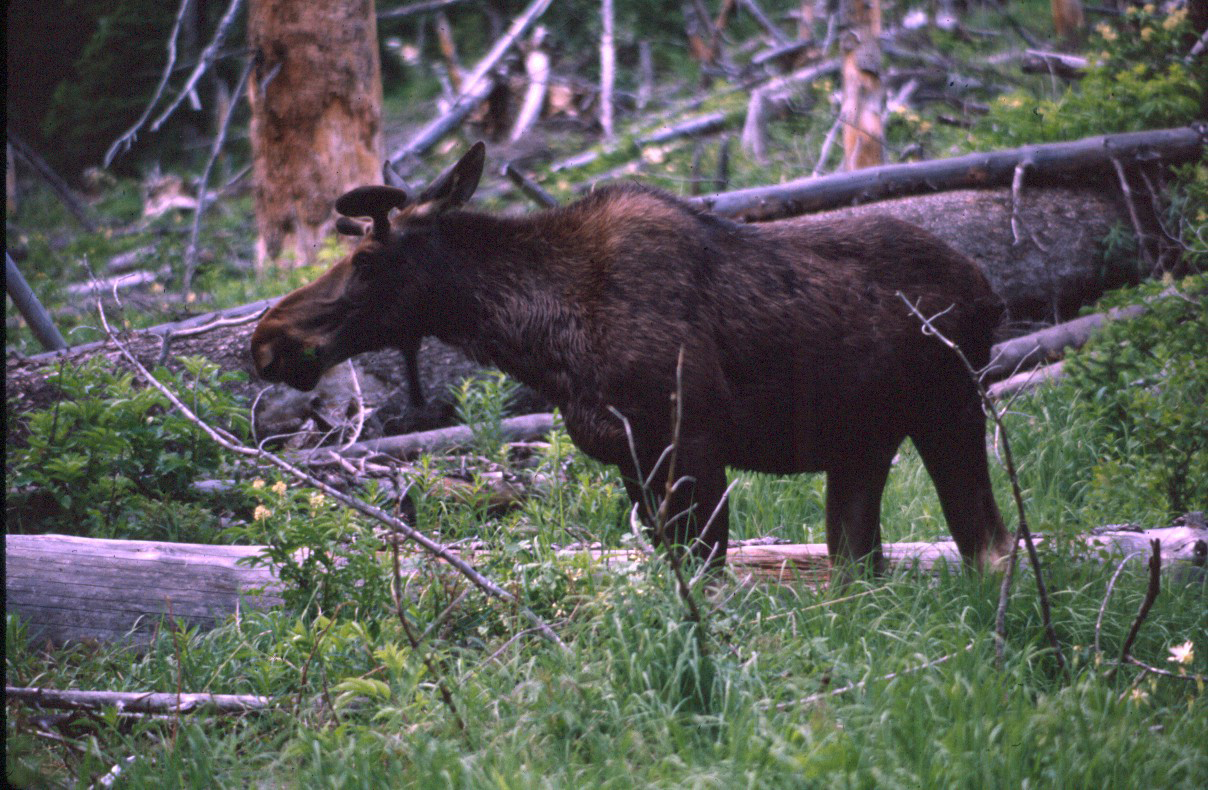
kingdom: Animalia
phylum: Chordata
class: Mammalia
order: Artiodactyla
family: Cervidae
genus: Alces
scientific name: Alces alces
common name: Moose
